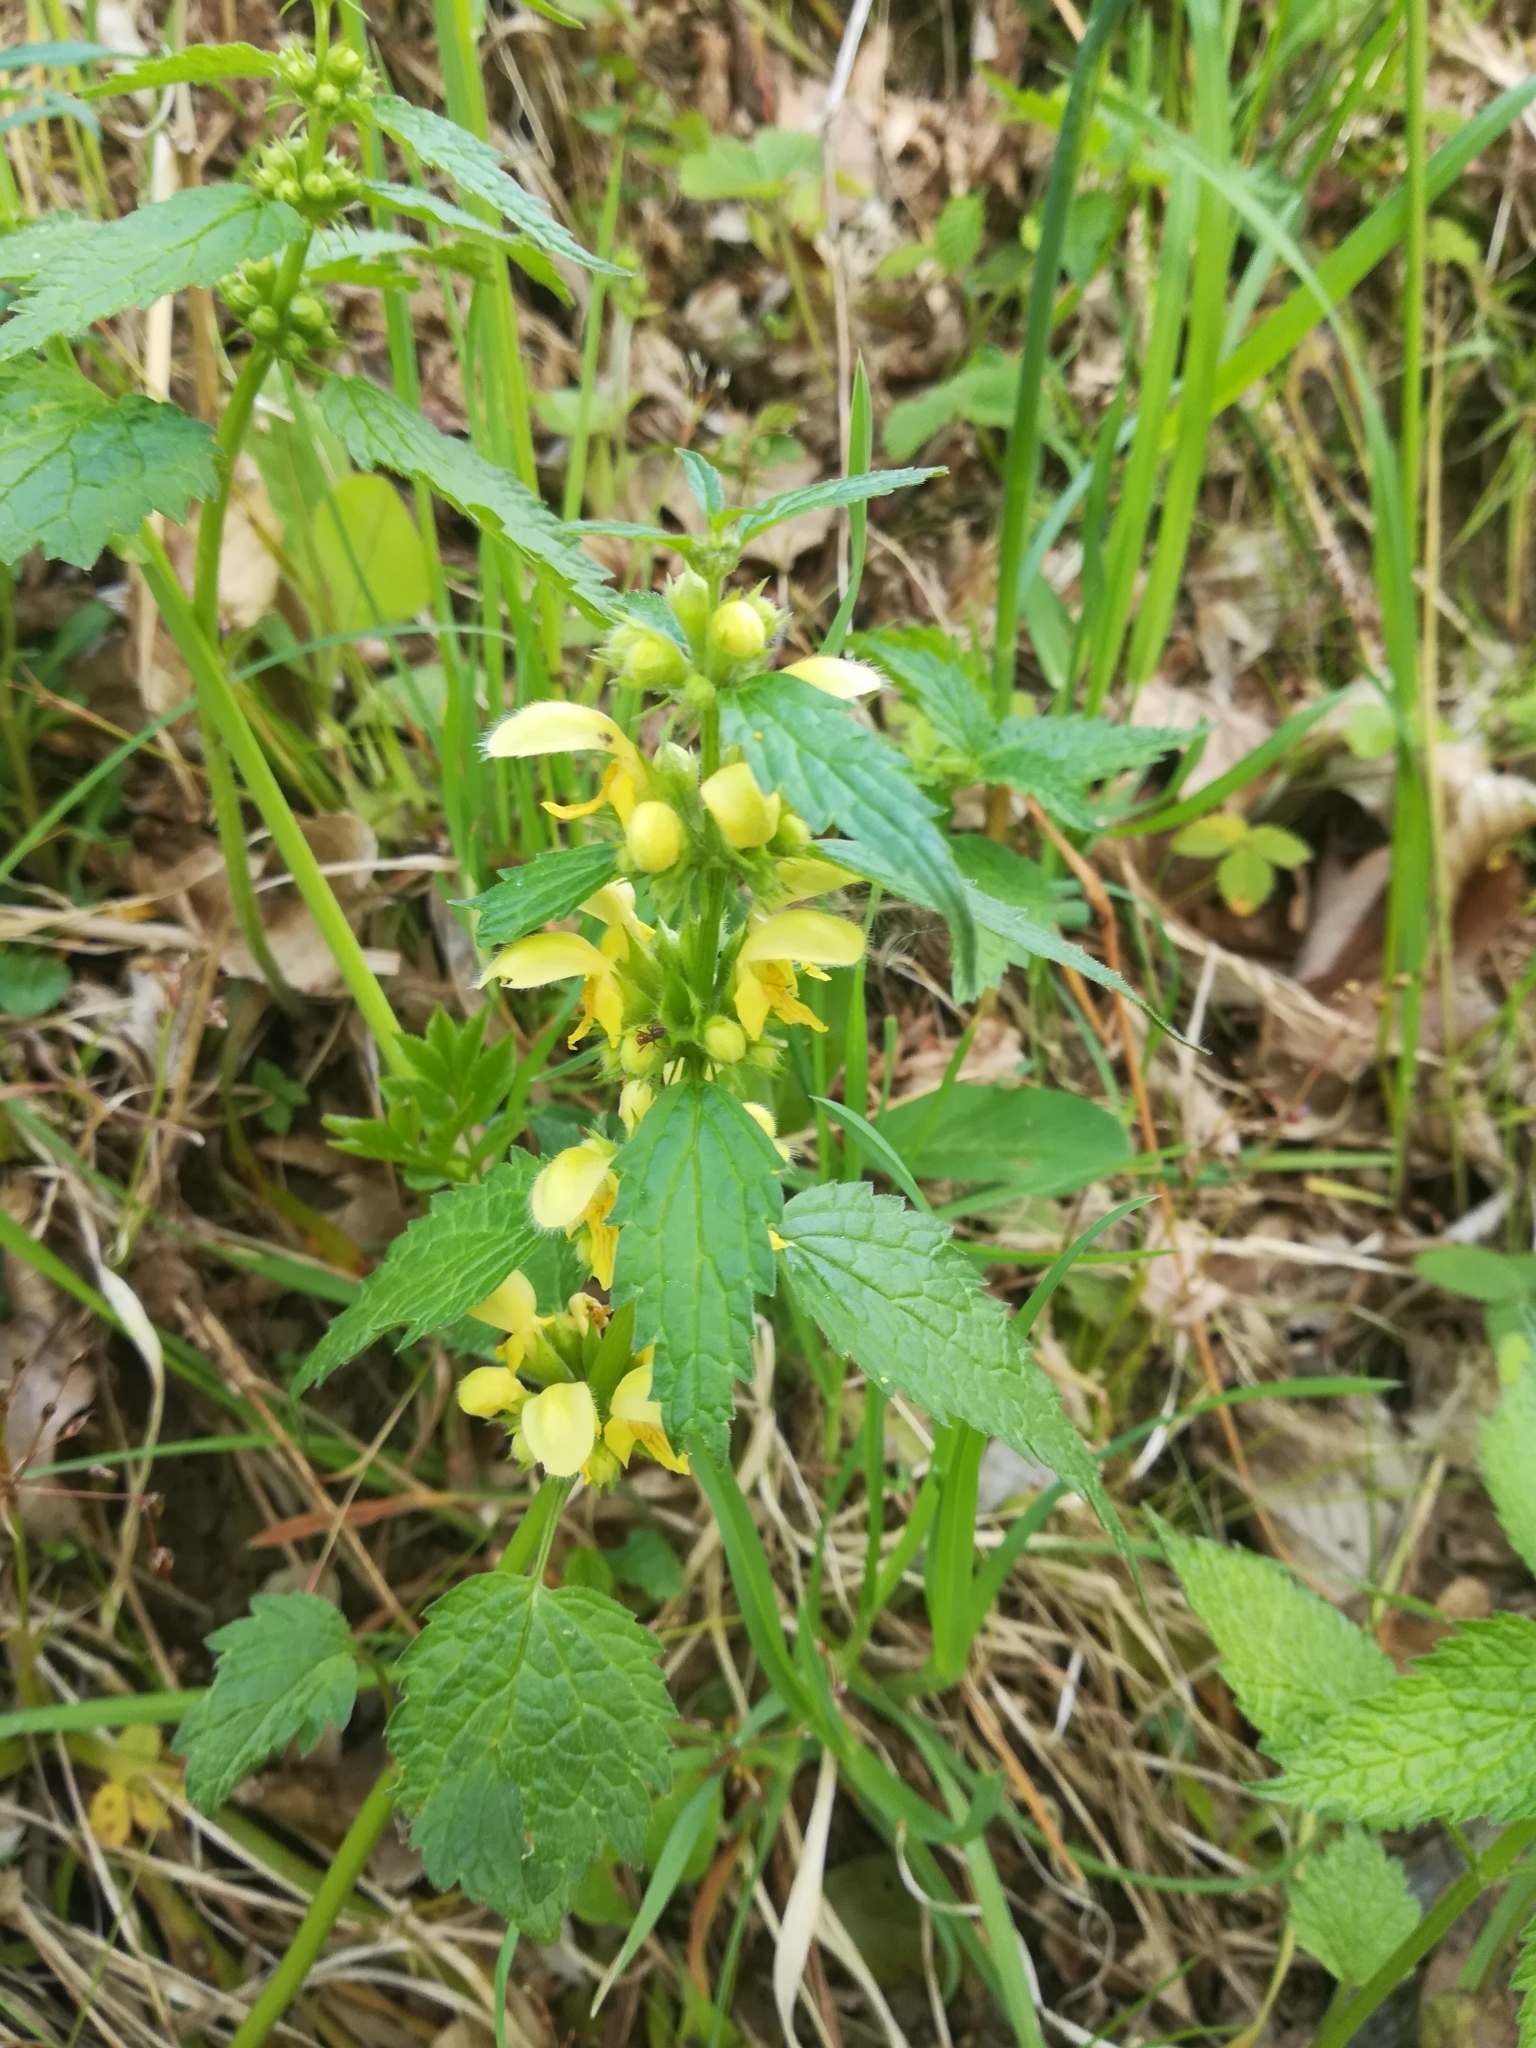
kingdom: Plantae
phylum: Tracheophyta
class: Magnoliopsida
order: Lamiales
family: Lamiaceae
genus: Lamium
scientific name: Lamium galeobdolon
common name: Yellow archangel
